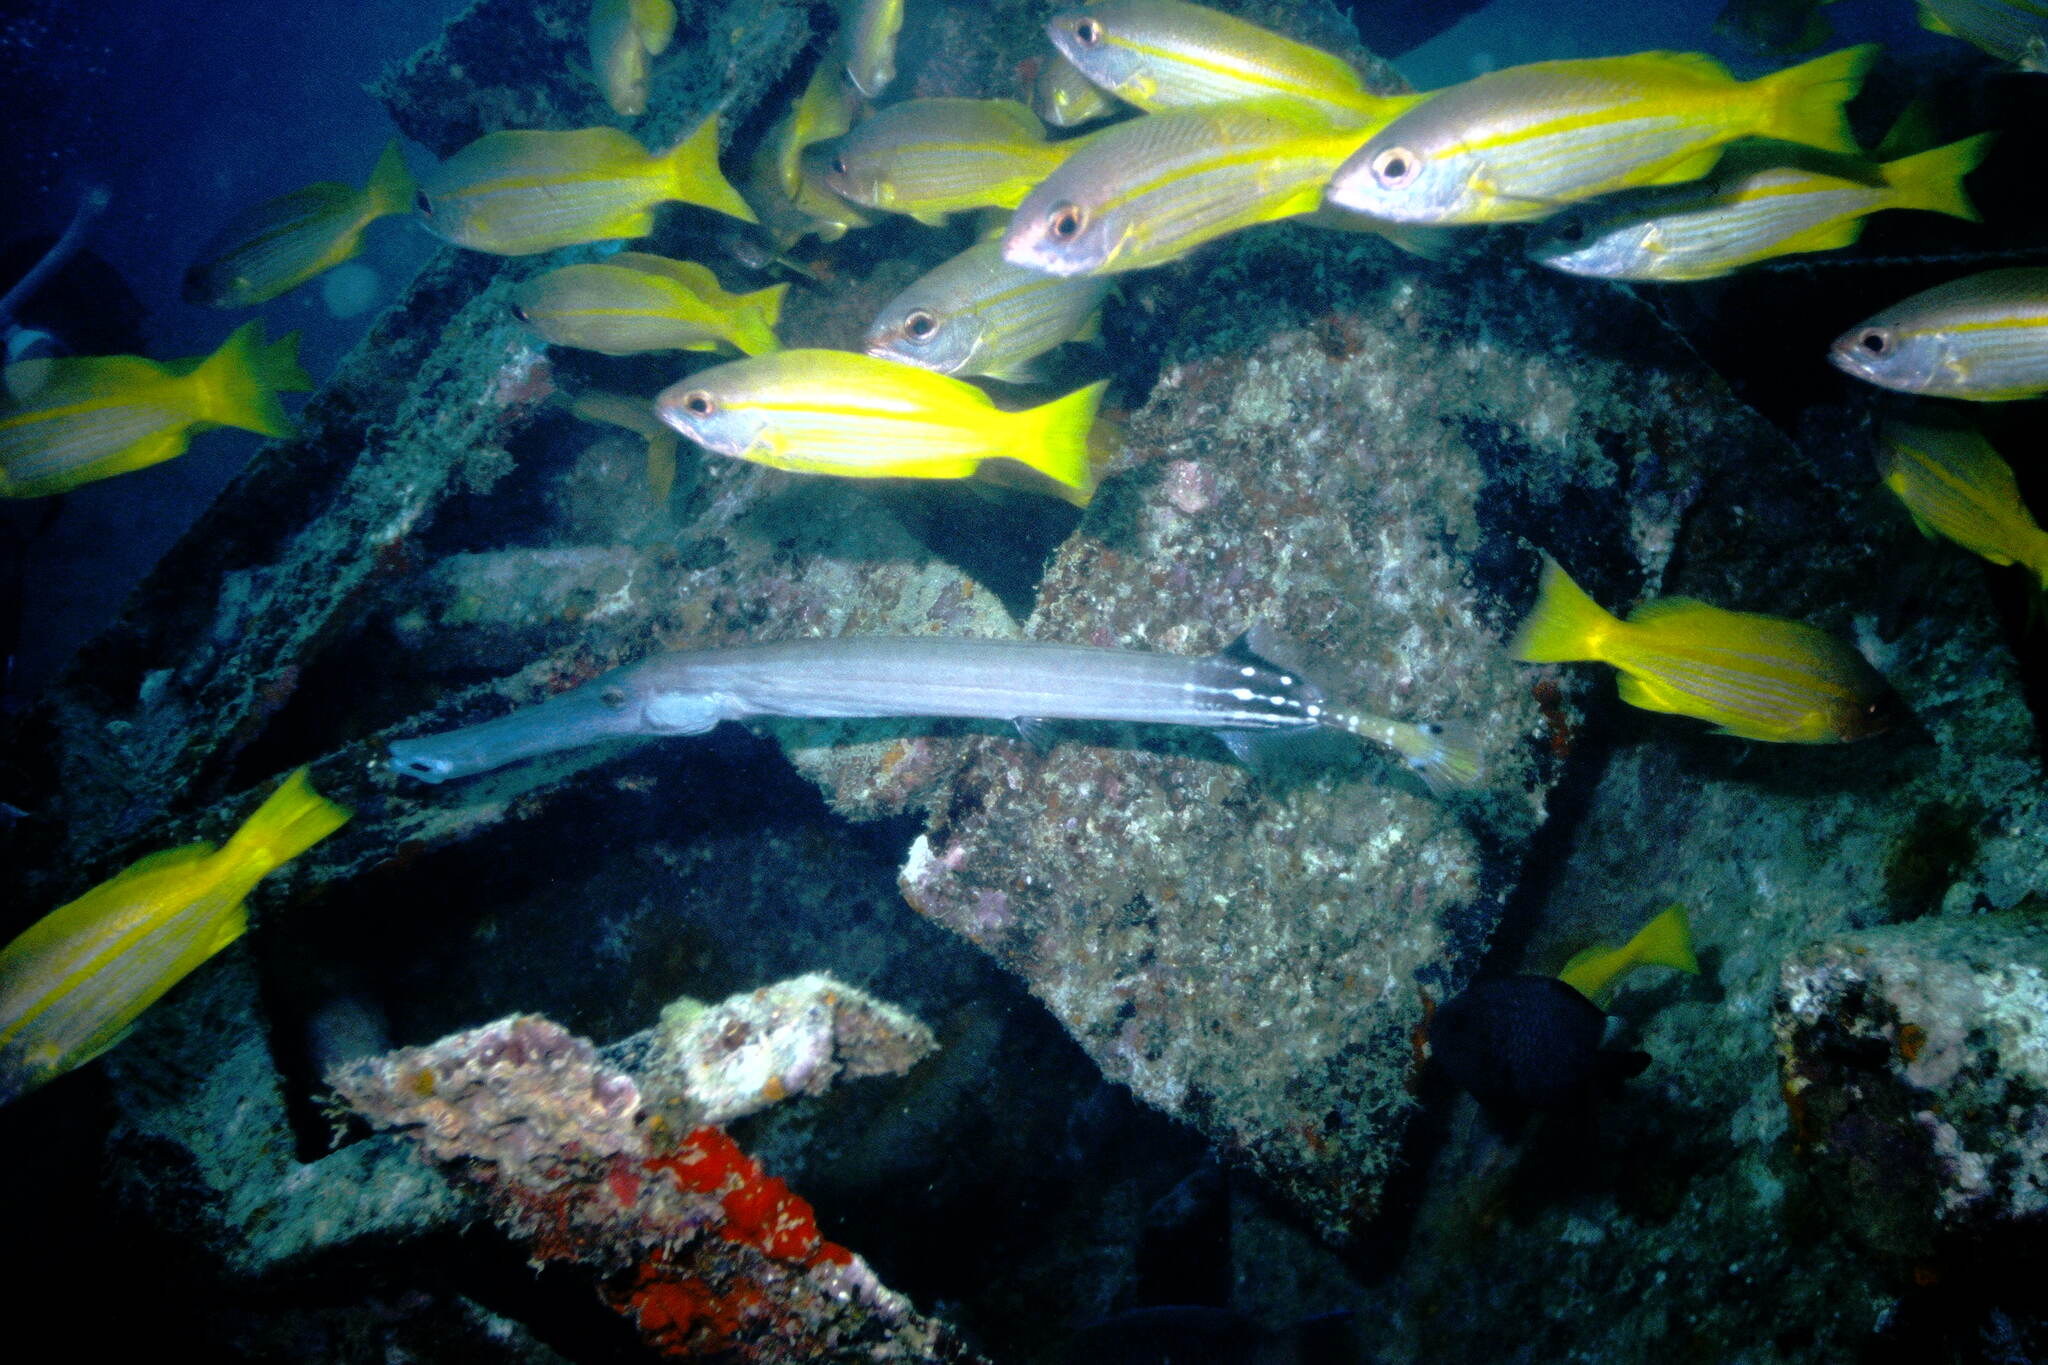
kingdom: Animalia
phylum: Chordata
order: Perciformes
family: Lutjanidae
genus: Lutjanus
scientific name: Lutjanus lutjanus
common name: Bigeye snapper
